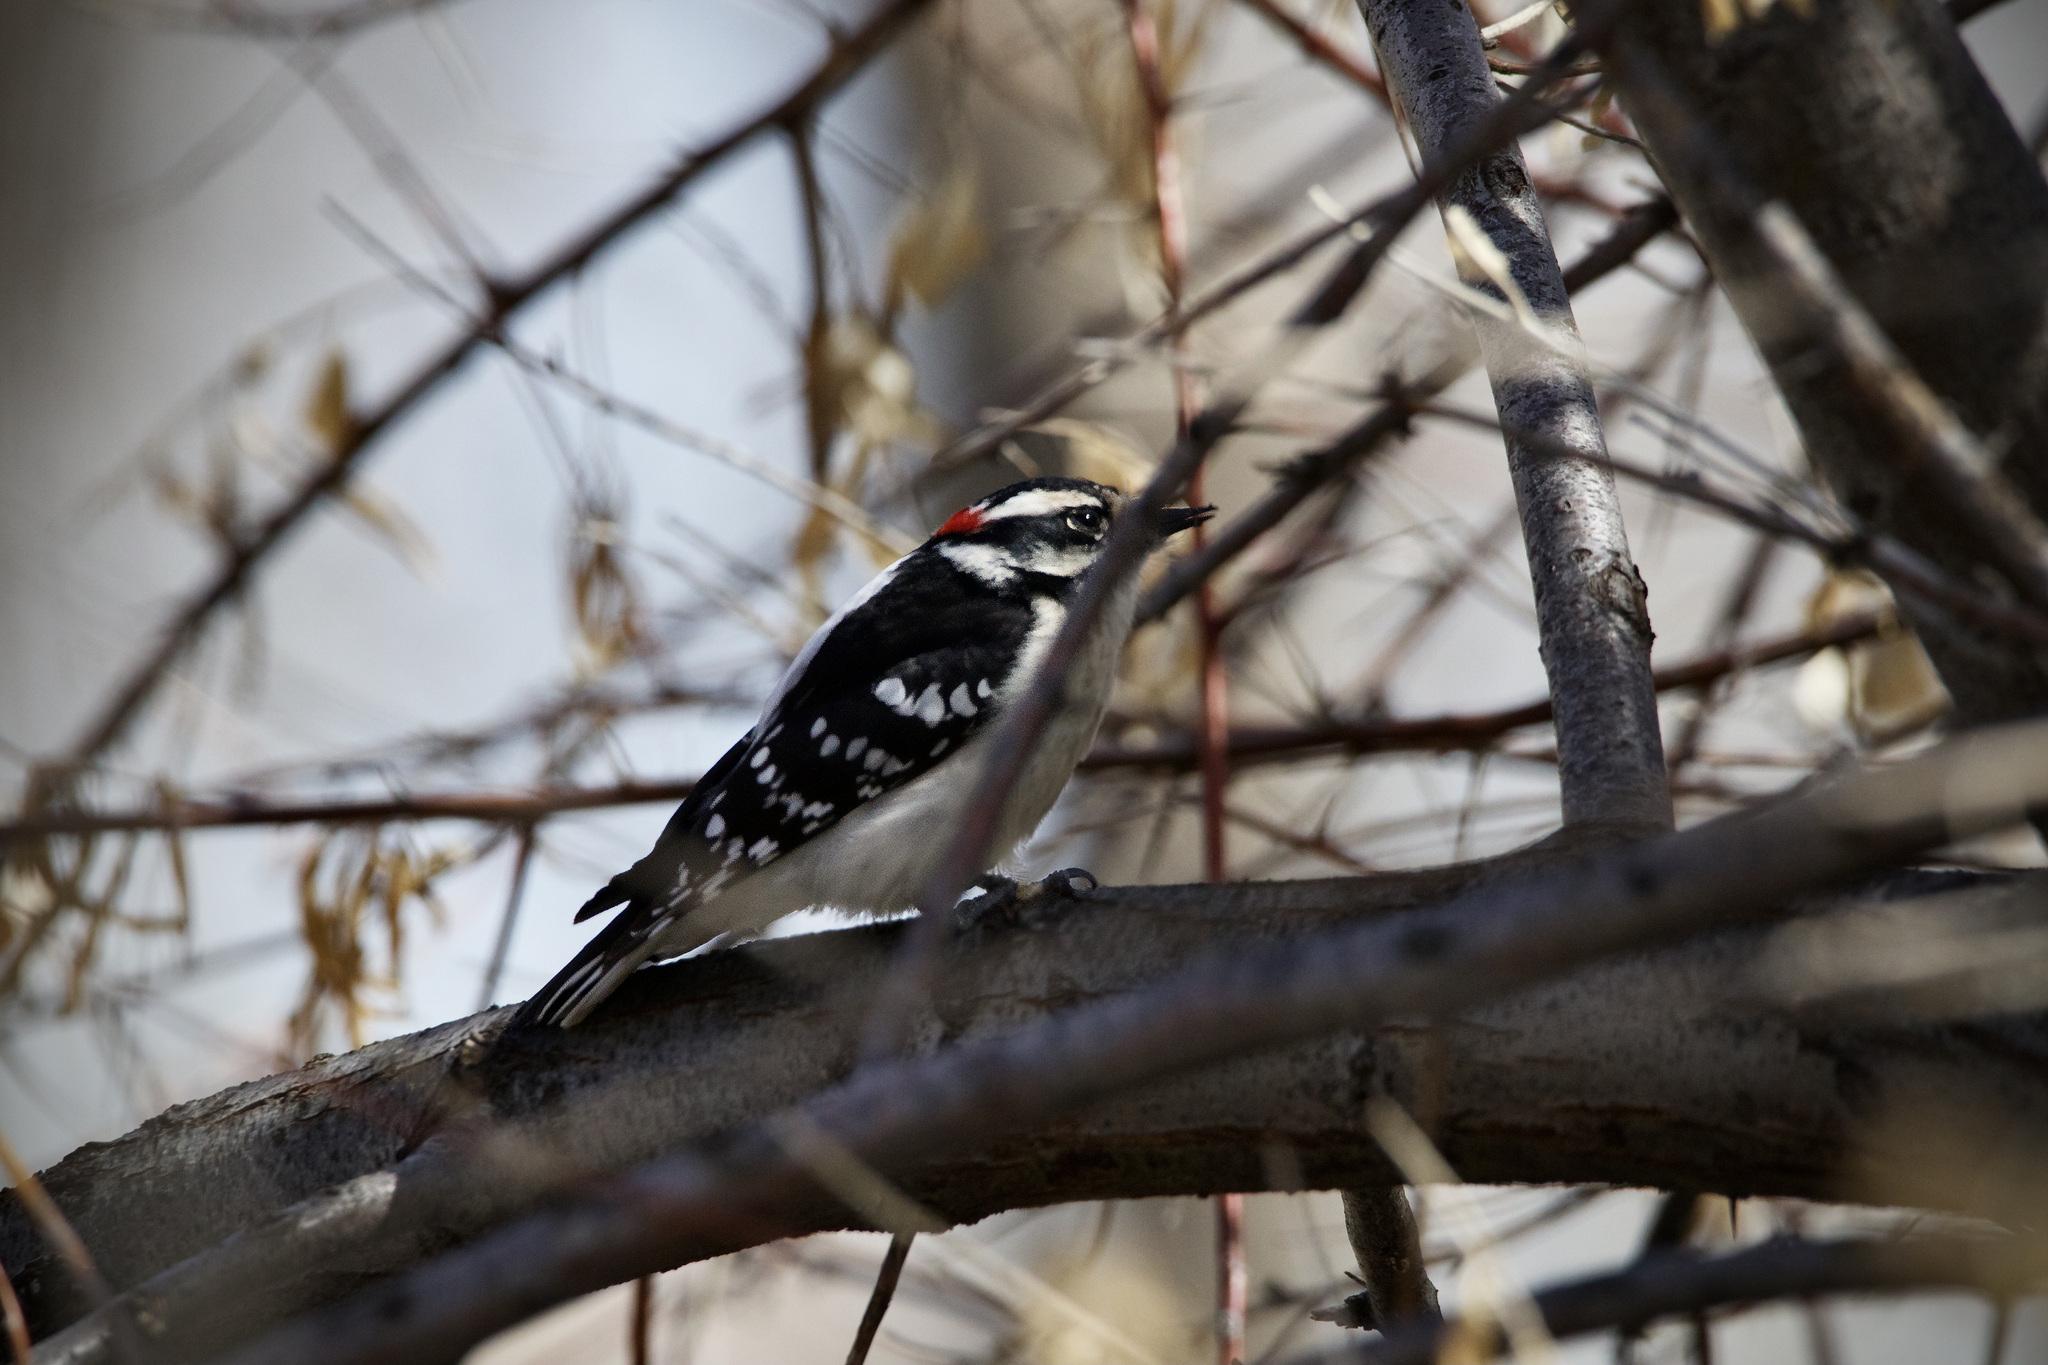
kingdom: Animalia
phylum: Chordata
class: Aves
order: Piciformes
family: Picidae
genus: Dryobates
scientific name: Dryobates pubescens
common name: Downy woodpecker
